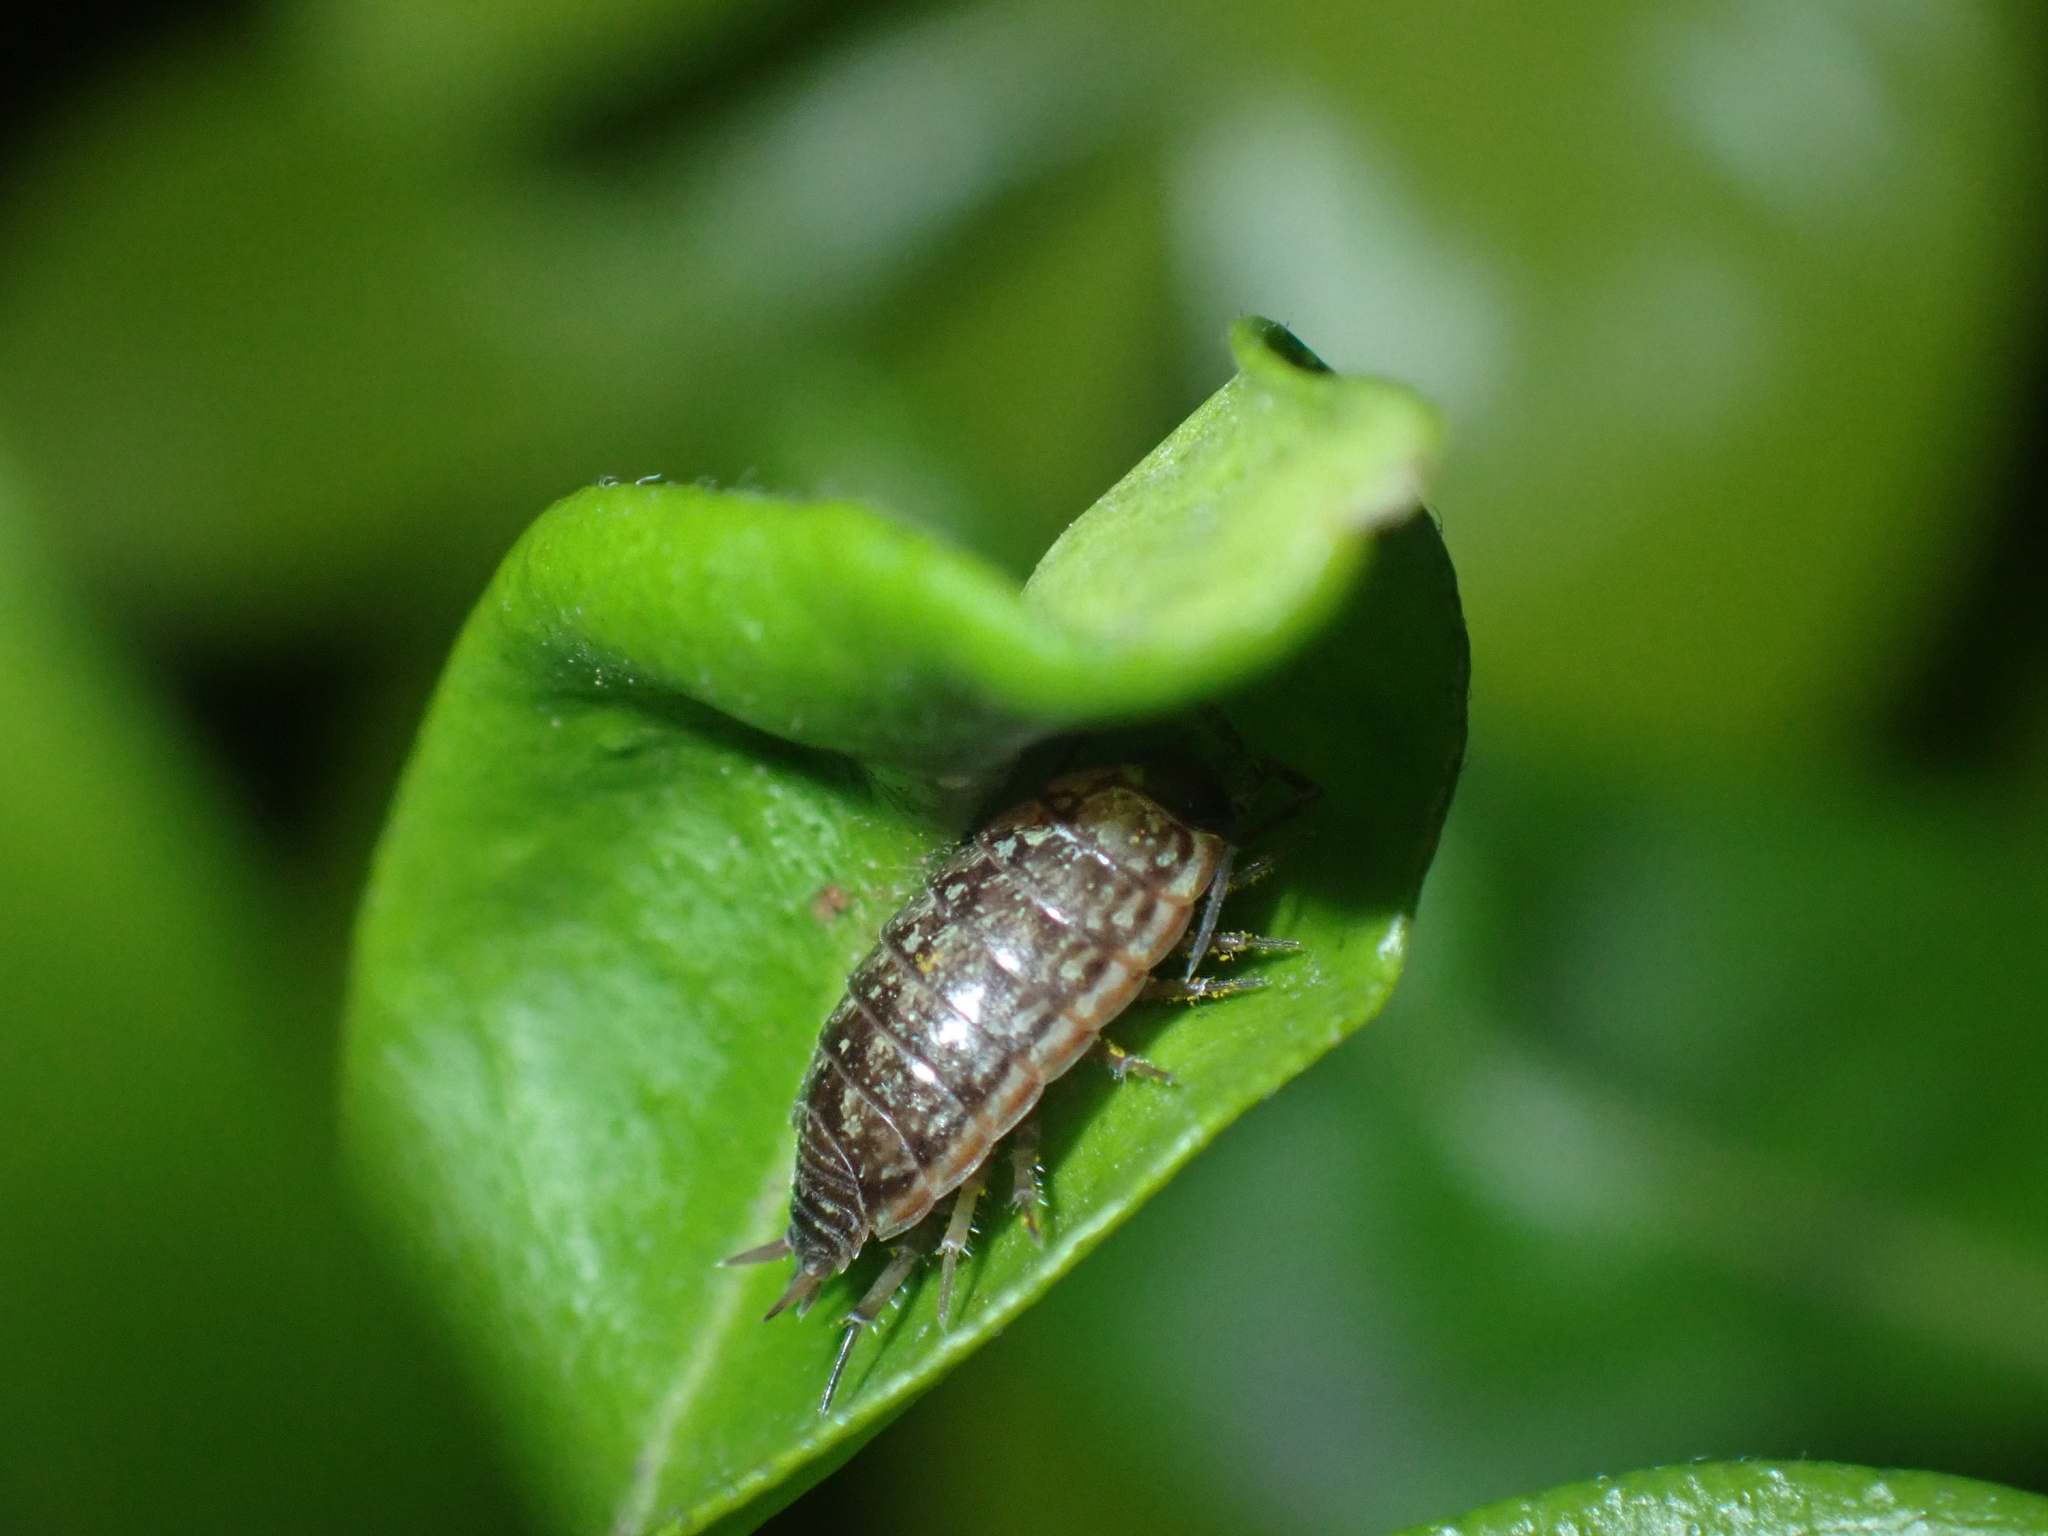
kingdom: Animalia
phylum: Arthropoda
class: Malacostraca
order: Isopoda
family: Philosciidae
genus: Philoscia
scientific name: Philoscia muscorum
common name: Common striped woodlouse
